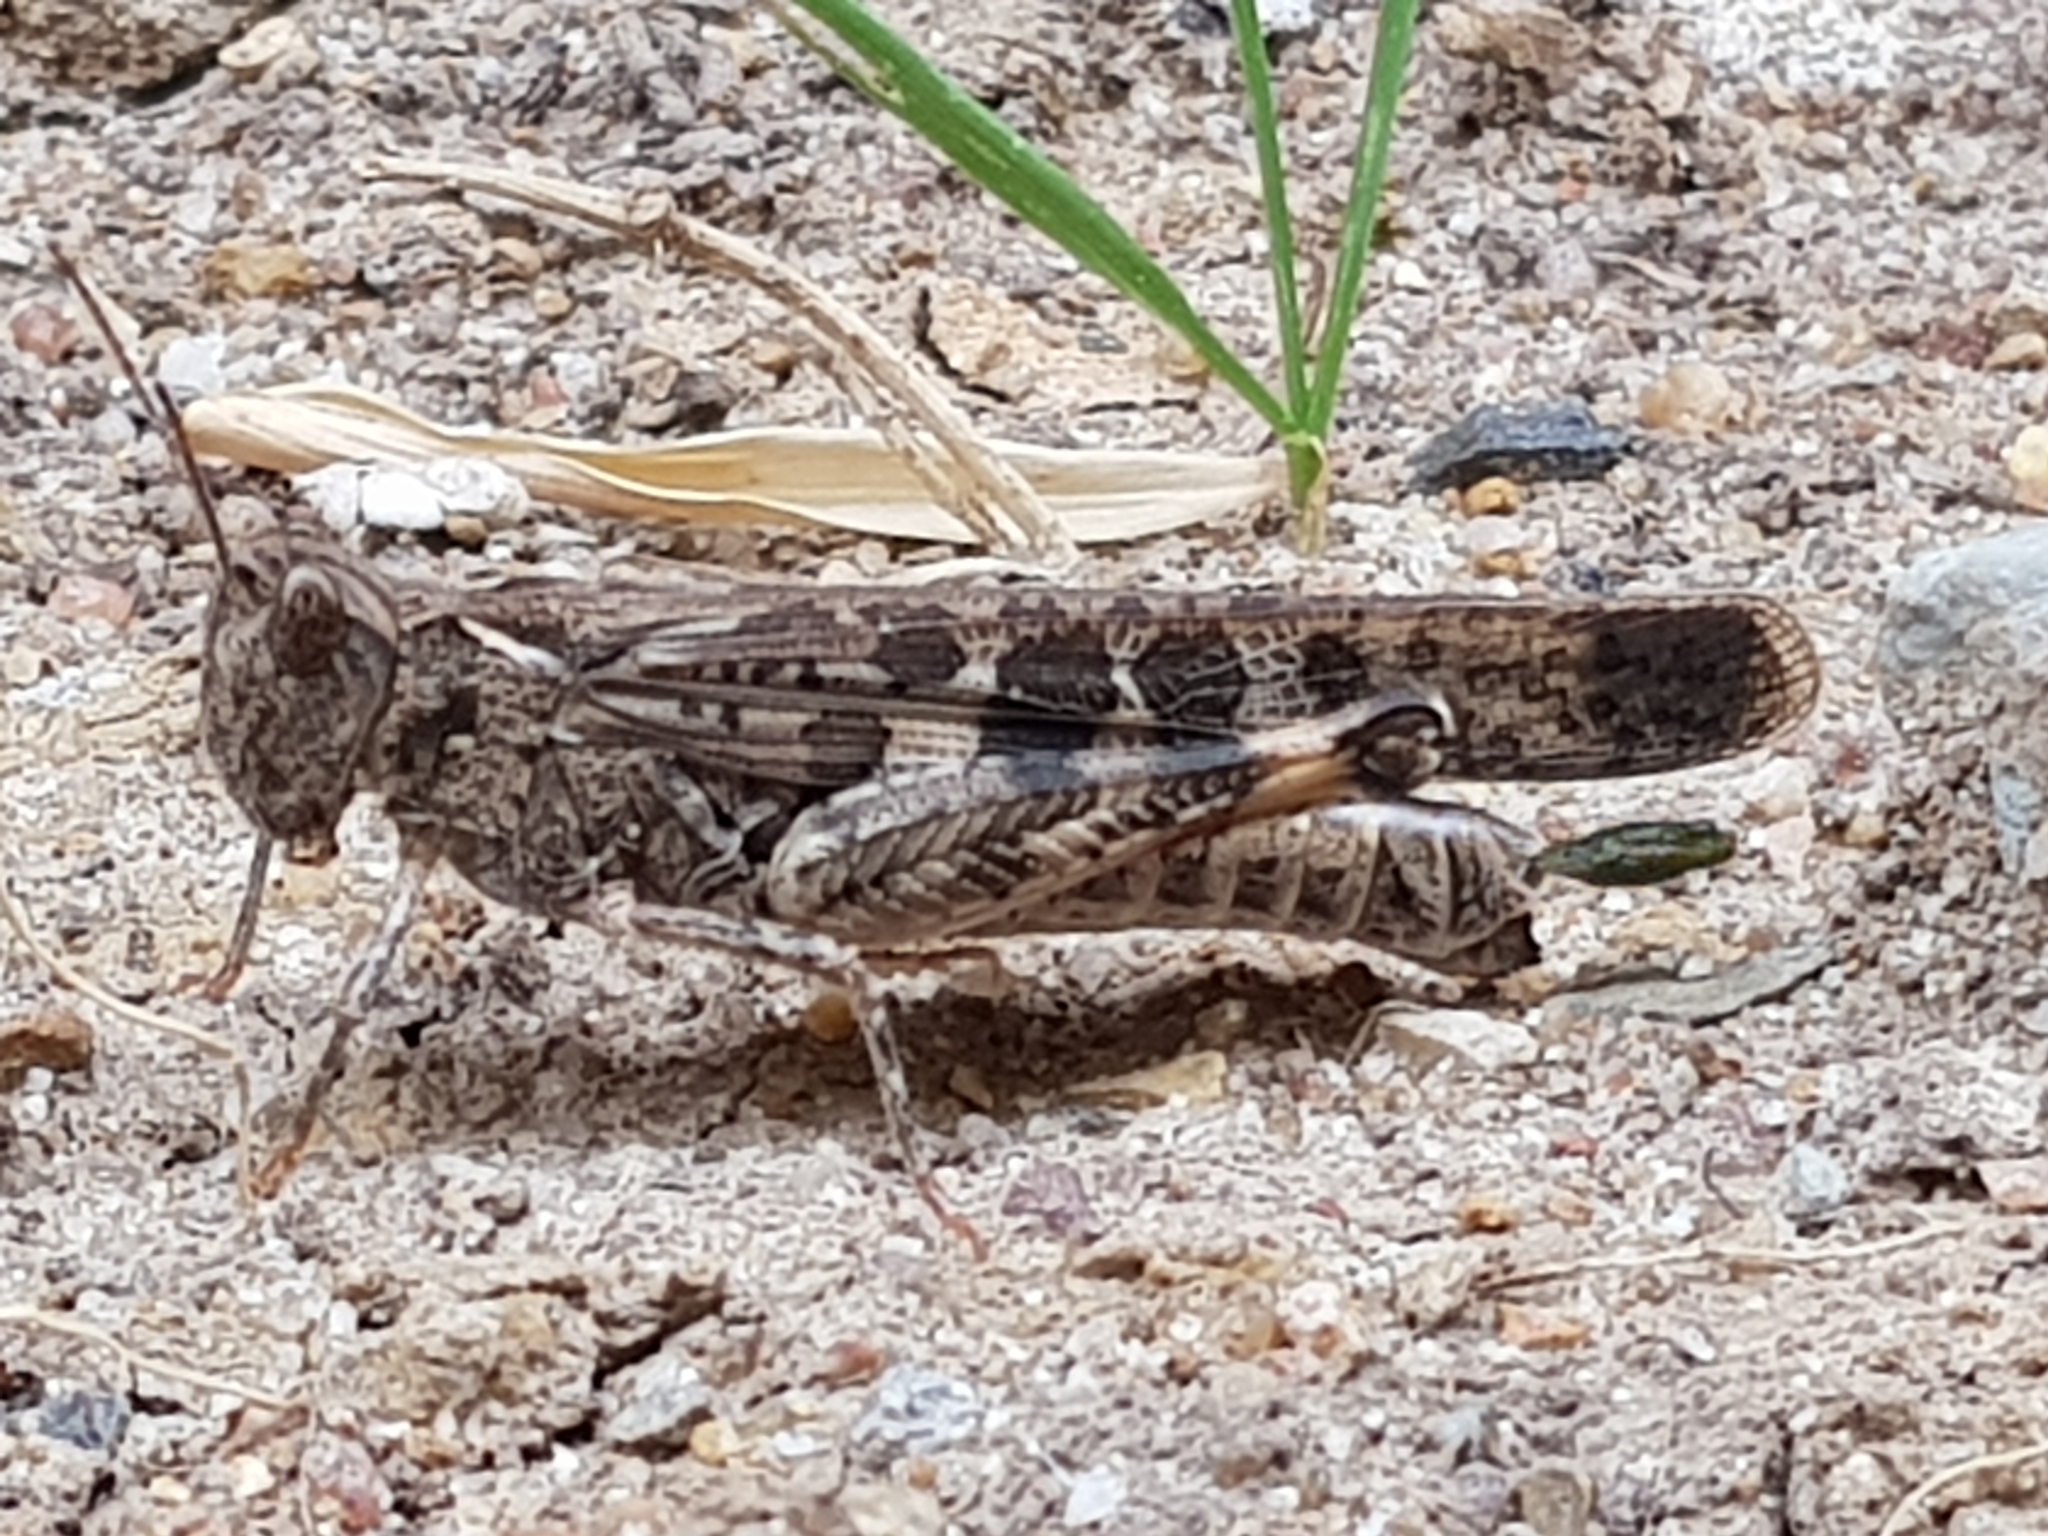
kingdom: Animalia
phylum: Arthropoda
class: Insecta
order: Orthoptera
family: Acrididae
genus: Chortoicetes
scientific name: Chortoicetes terminifera
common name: Australian plague locust
